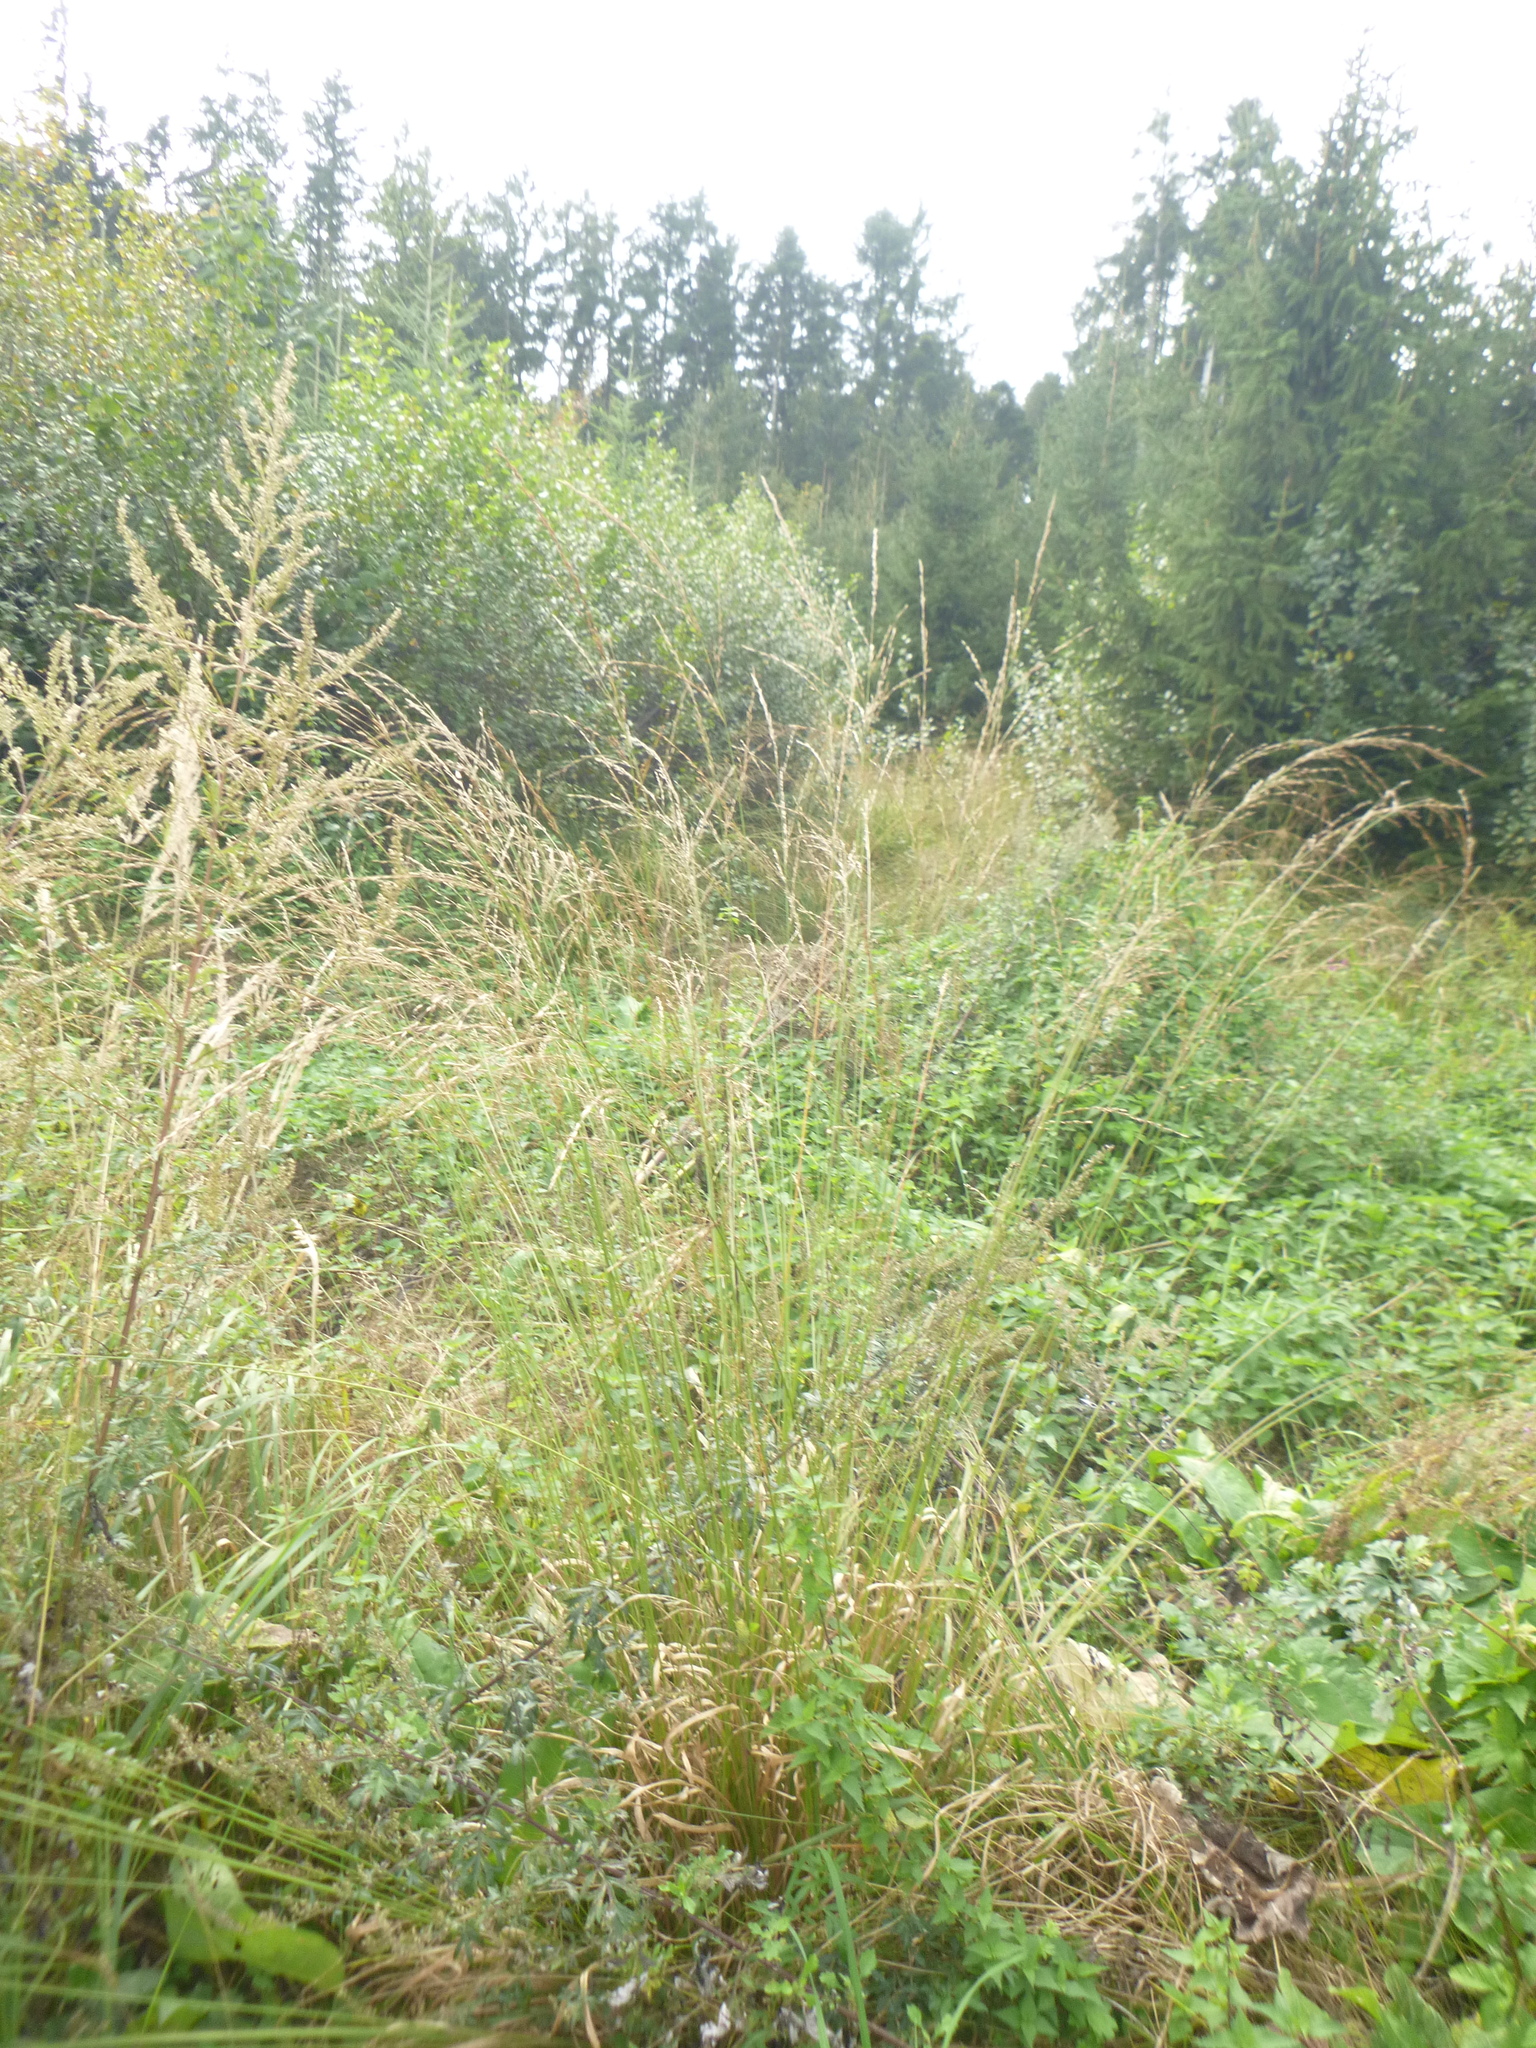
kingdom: Plantae
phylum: Tracheophyta
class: Liliopsida
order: Poales
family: Poaceae
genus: Molinia
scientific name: Molinia caerulea
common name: Purple moor-grass
